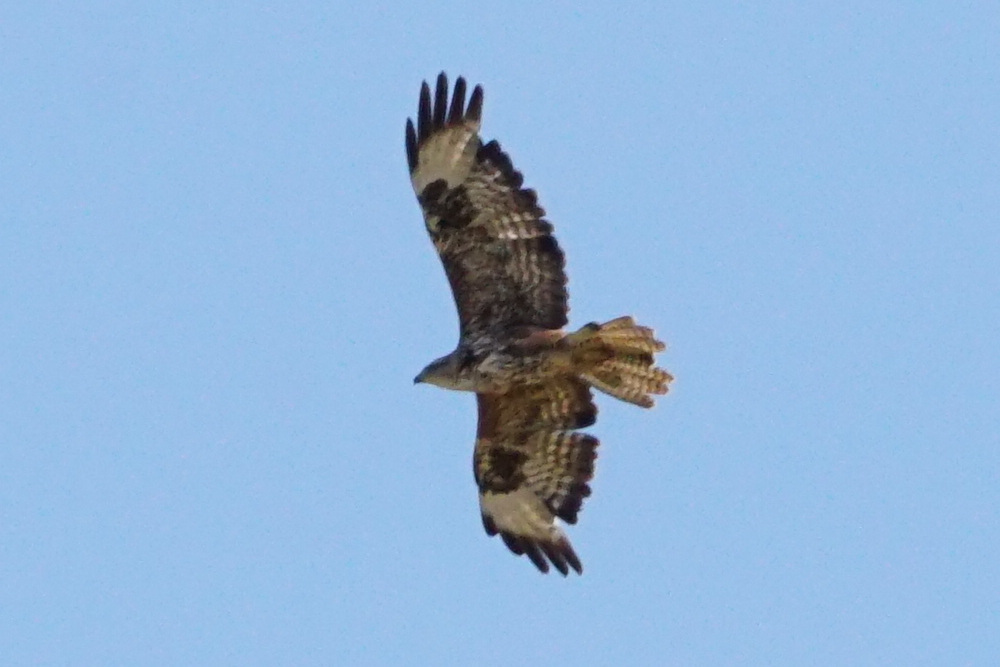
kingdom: Animalia
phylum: Chordata
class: Aves
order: Accipitriformes
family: Accipitridae
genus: Buteo
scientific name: Buteo buteo
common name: Common buzzard
